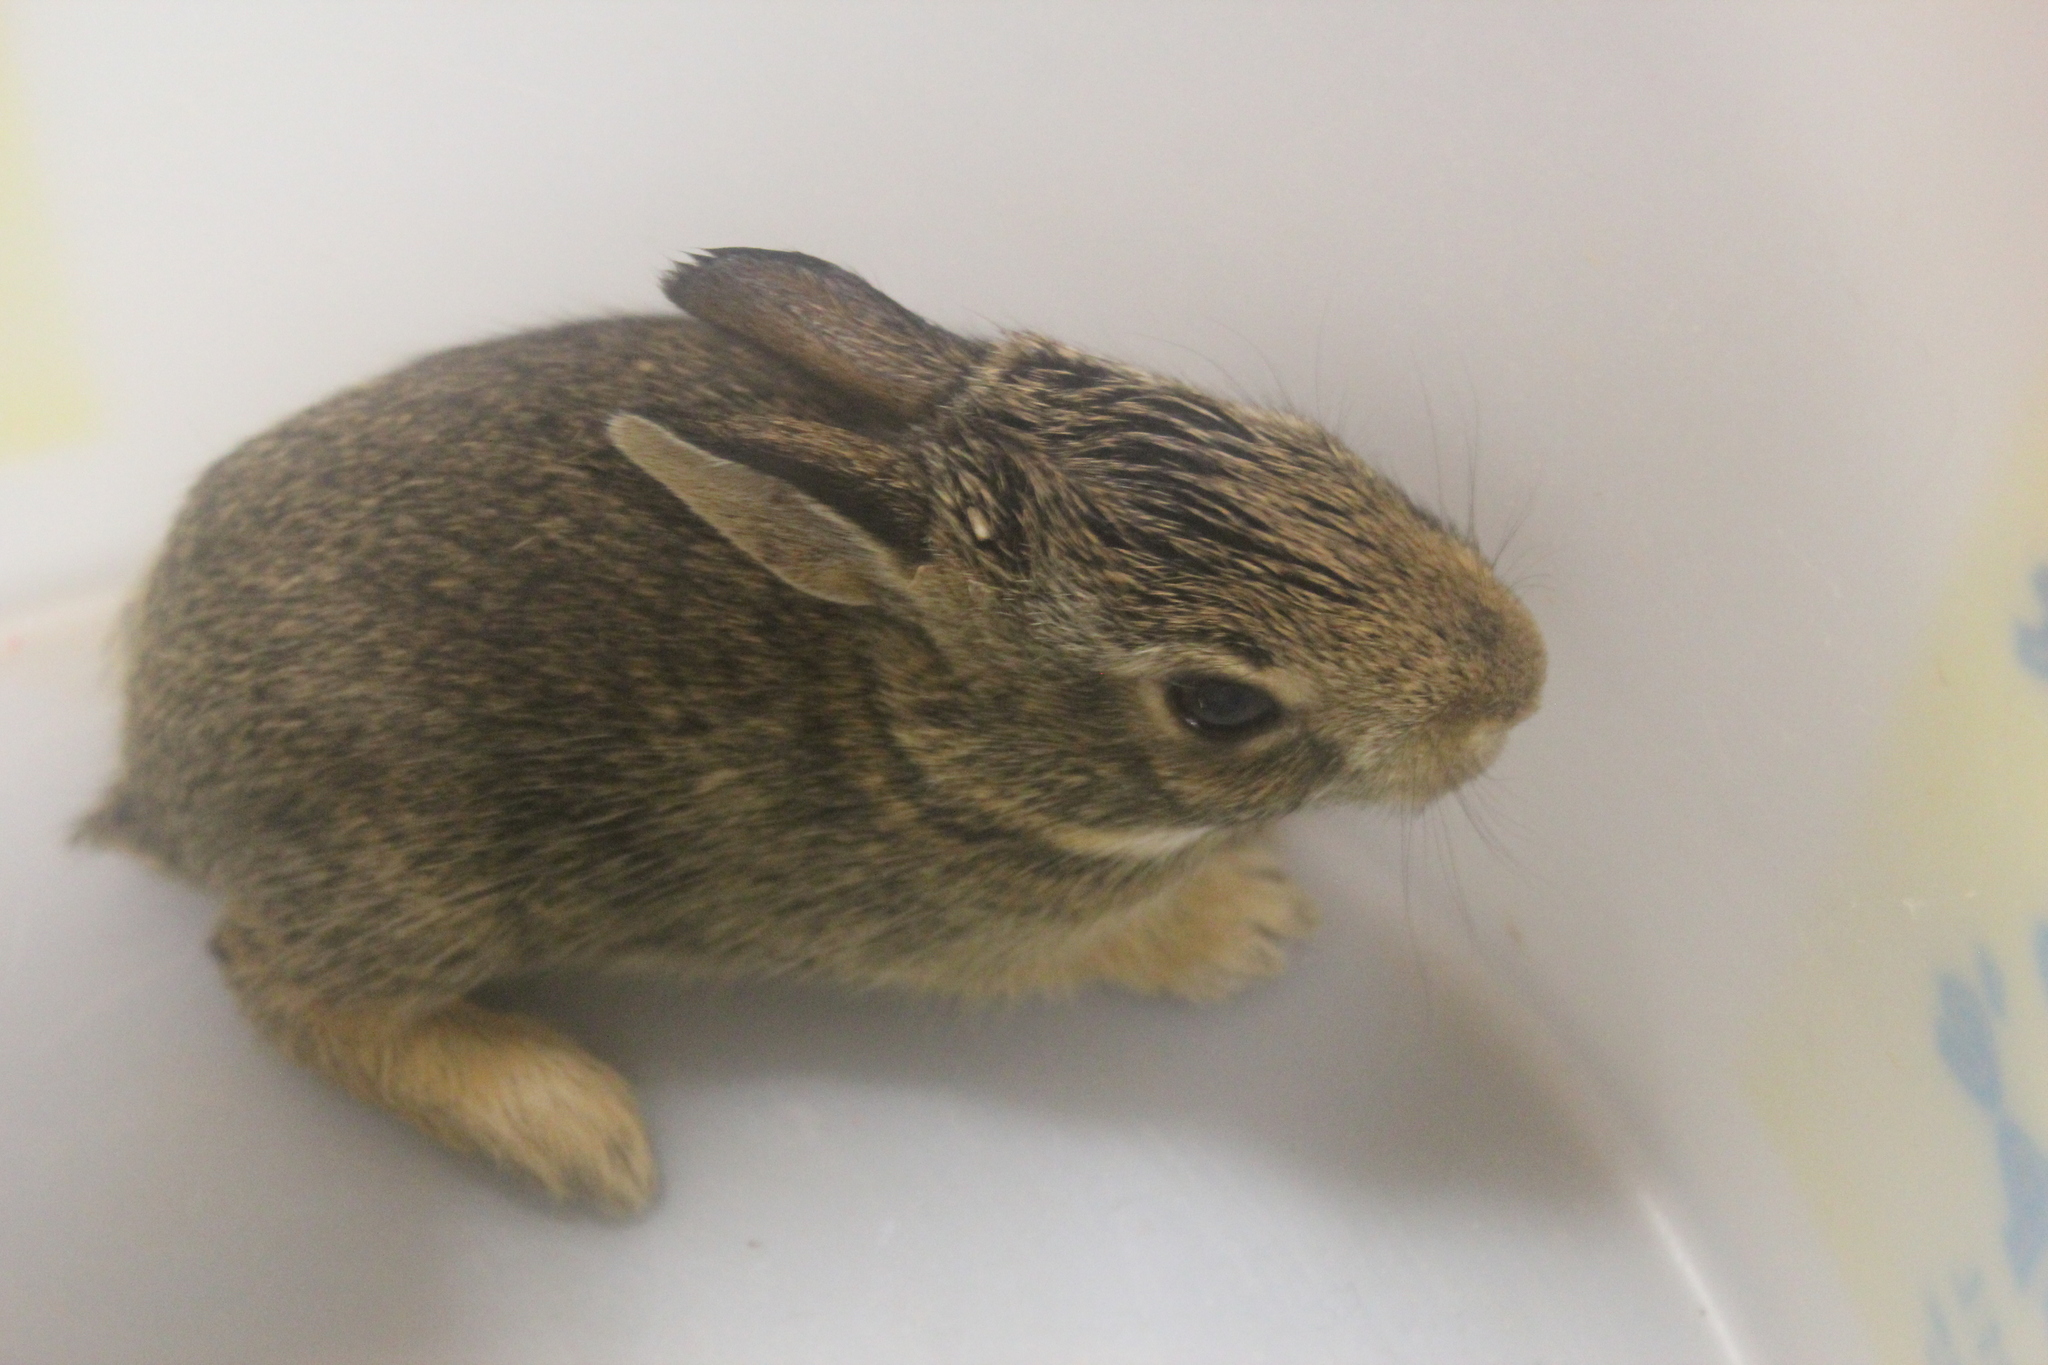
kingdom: Animalia
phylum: Chordata
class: Mammalia
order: Lagomorpha
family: Leporidae
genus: Sylvilagus
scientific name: Sylvilagus floridanus
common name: Eastern cottontail
